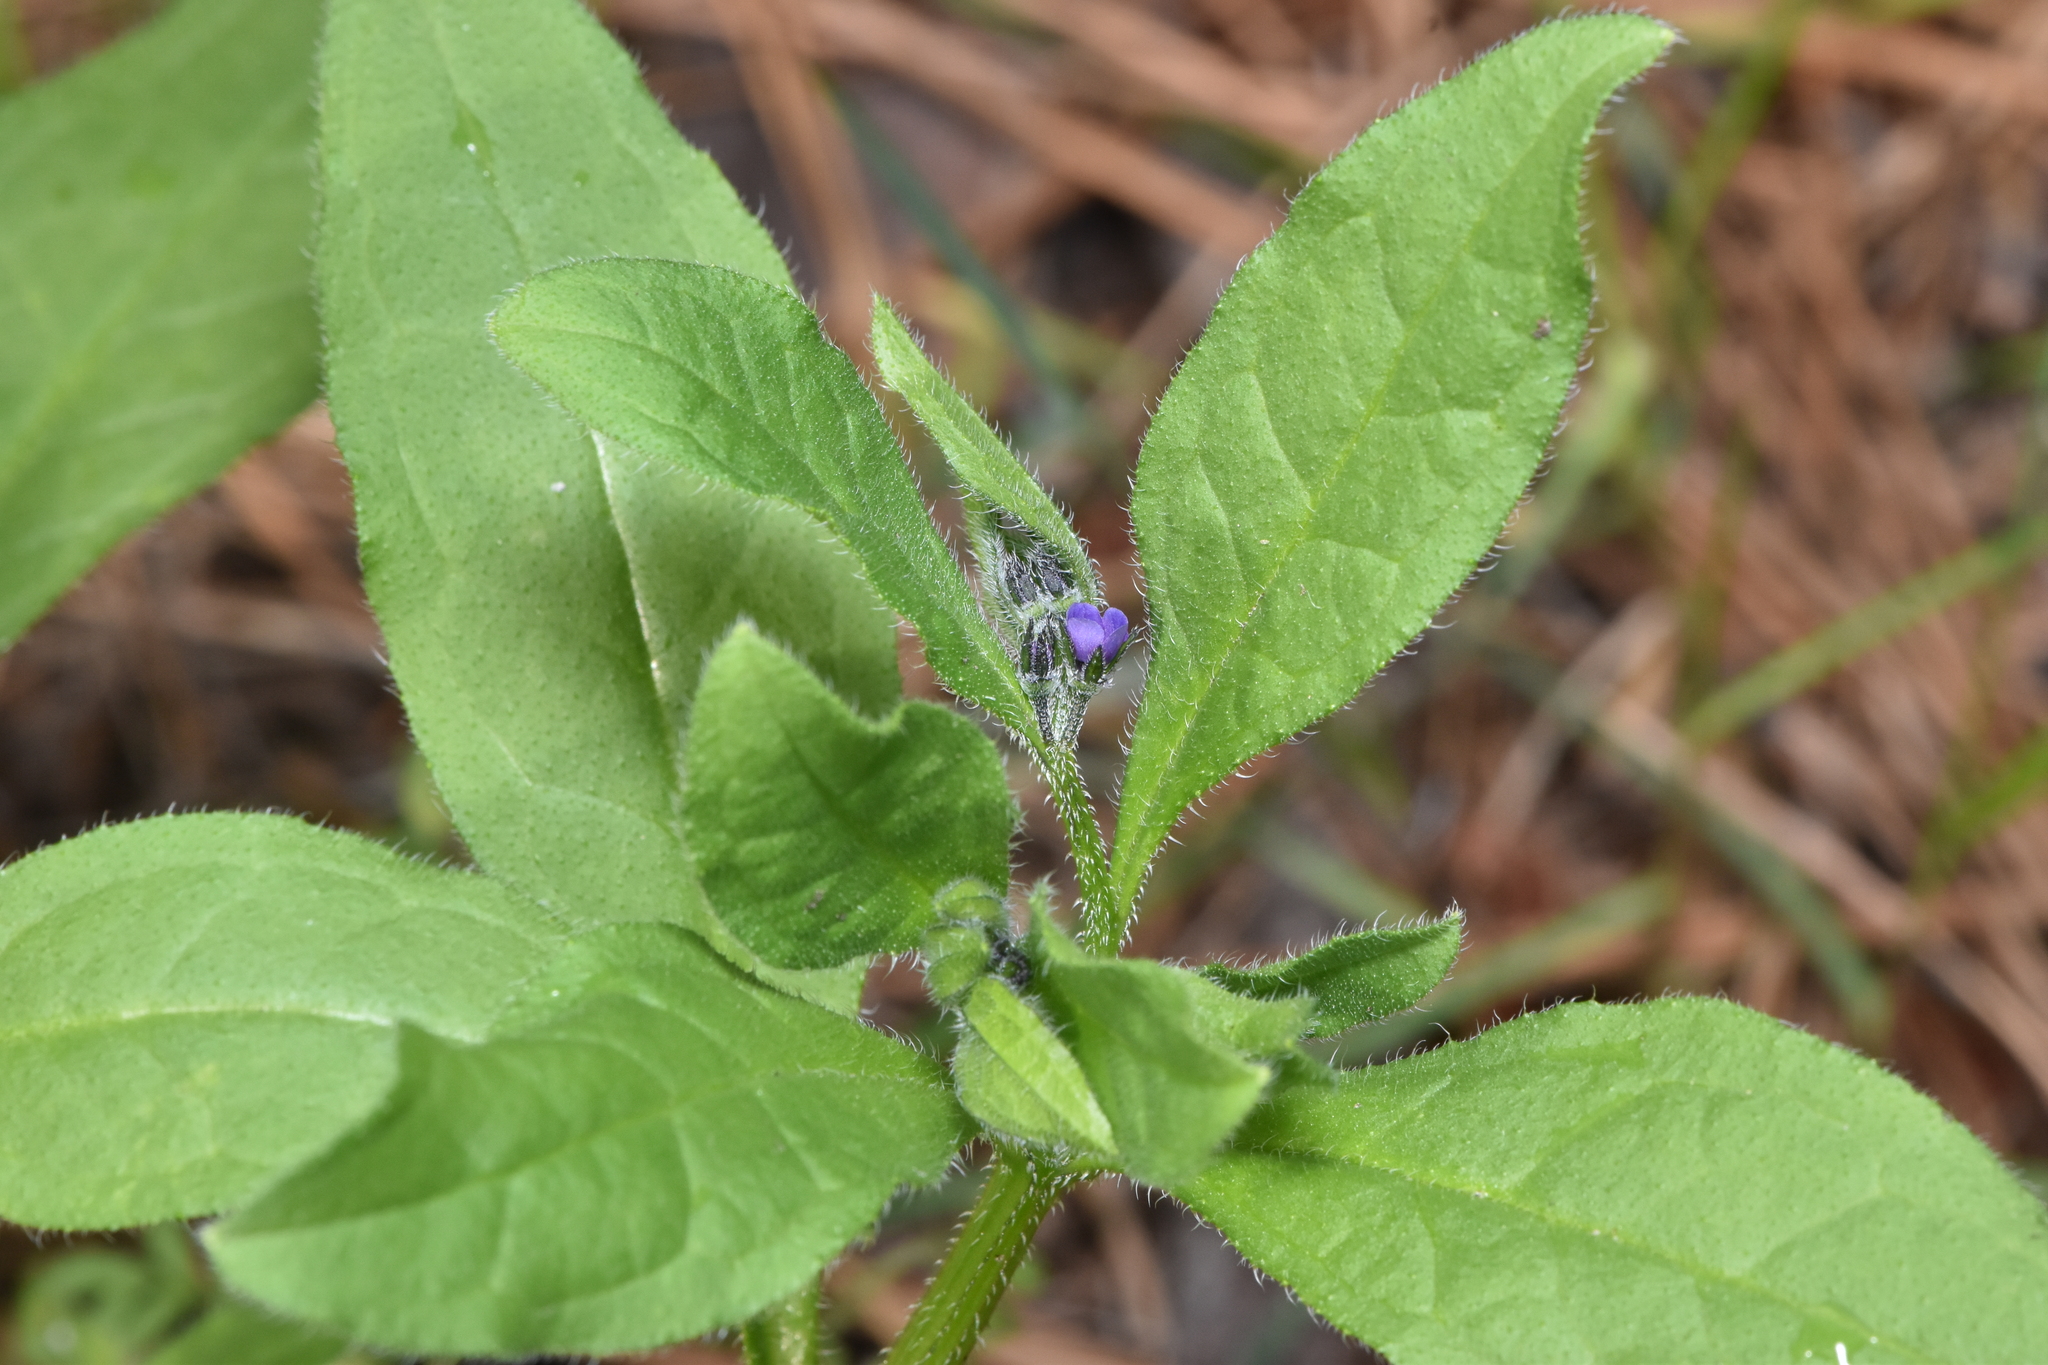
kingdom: Plantae
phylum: Tracheophyta
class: Magnoliopsida
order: Boraginales
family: Boraginaceae
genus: Asperugo
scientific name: Asperugo procumbens
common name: Madwort
